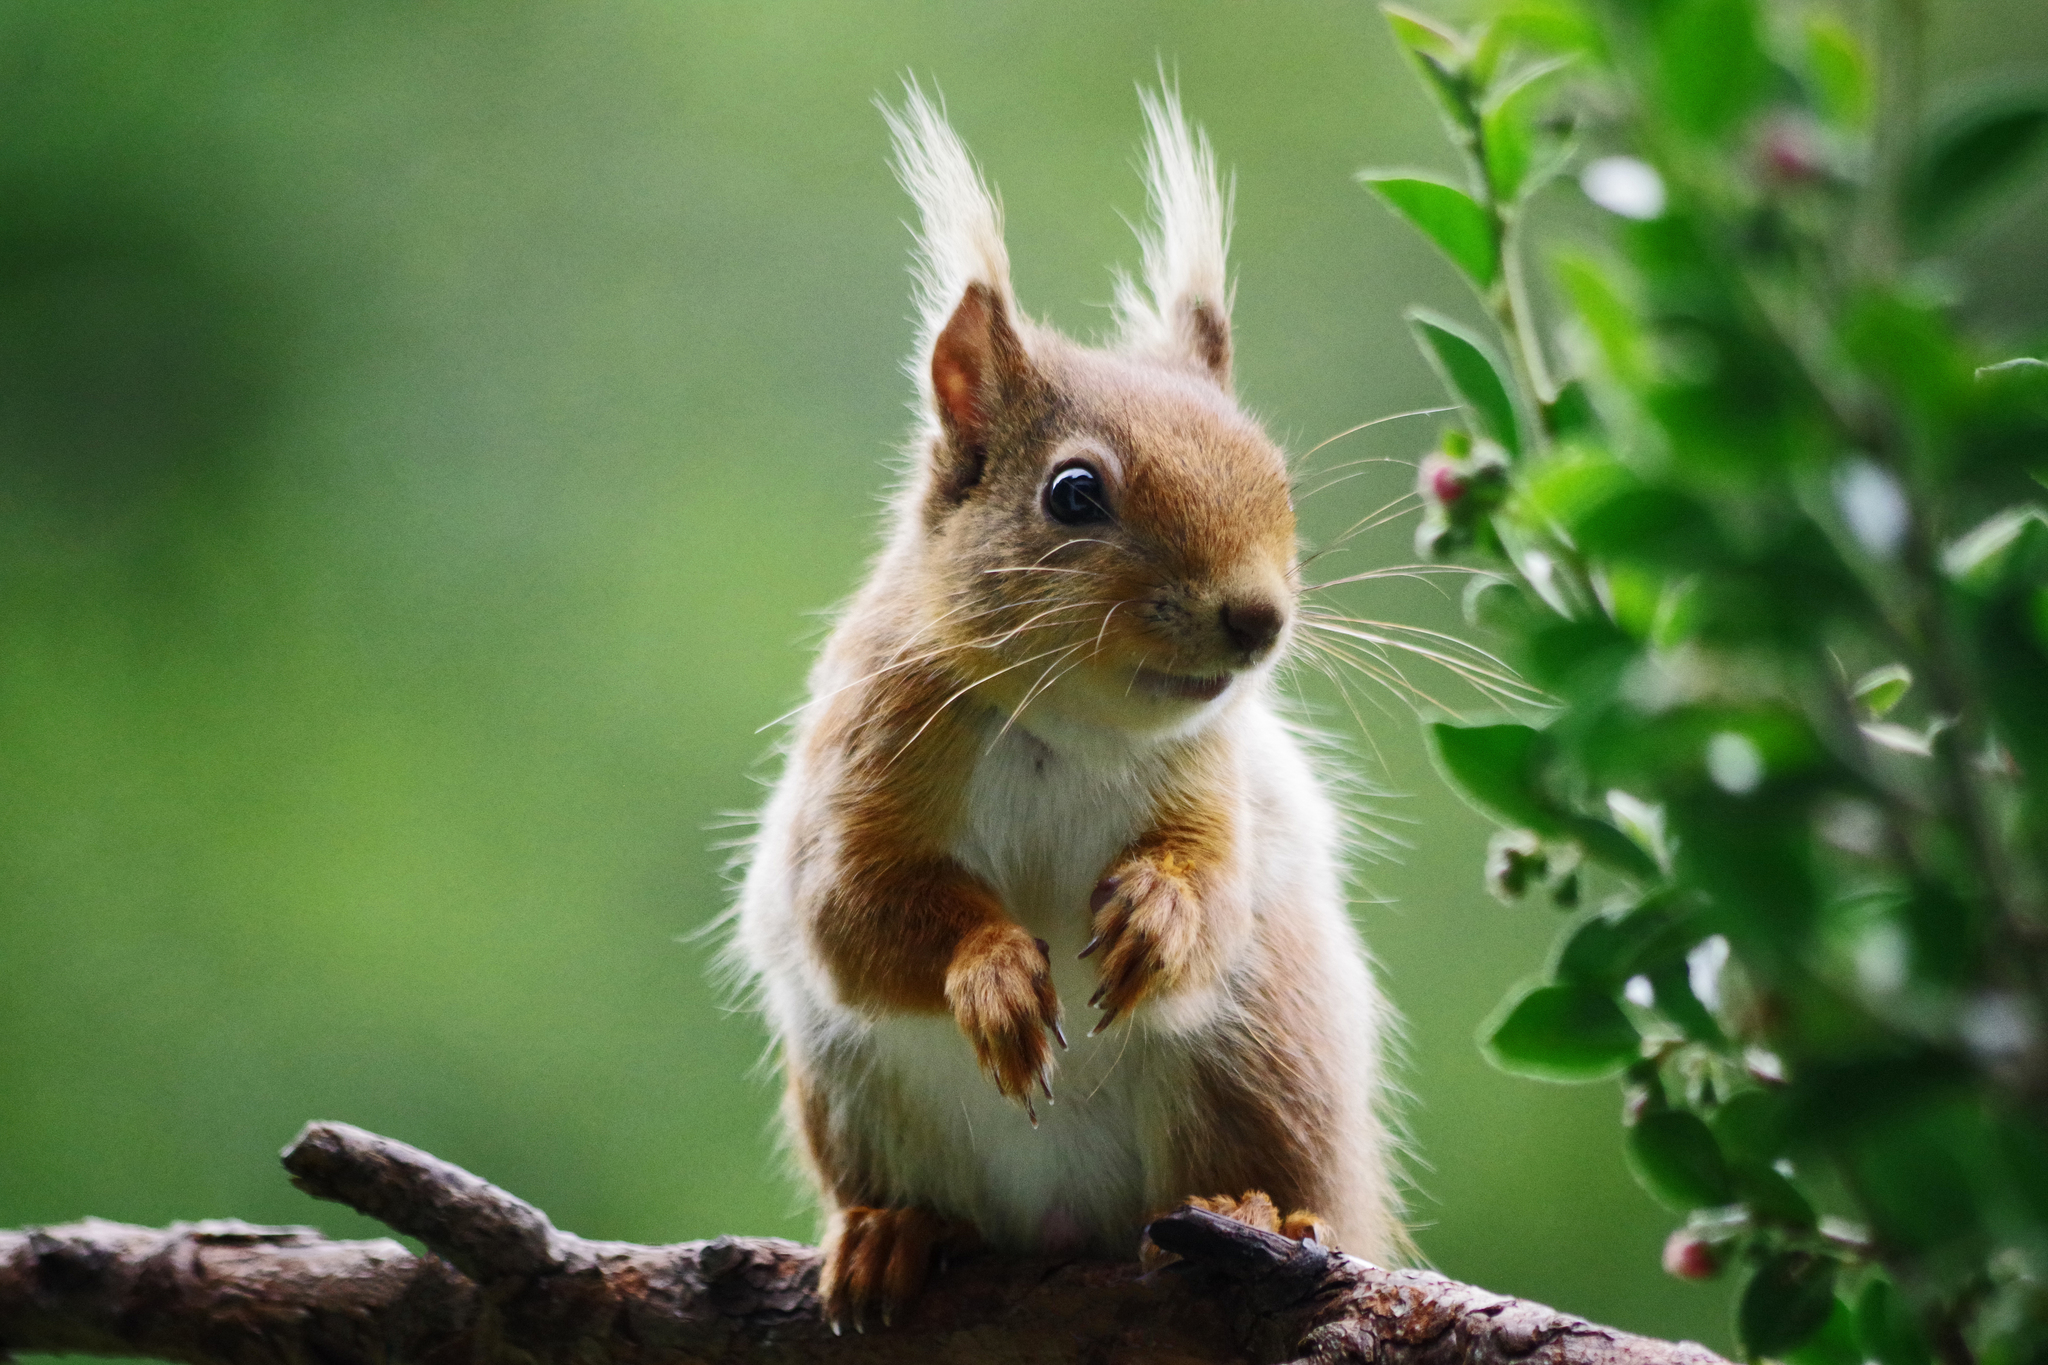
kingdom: Animalia
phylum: Chordata
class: Mammalia
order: Rodentia
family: Sciuridae
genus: Sciurus
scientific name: Sciurus vulgaris
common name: Eurasian red squirrel
